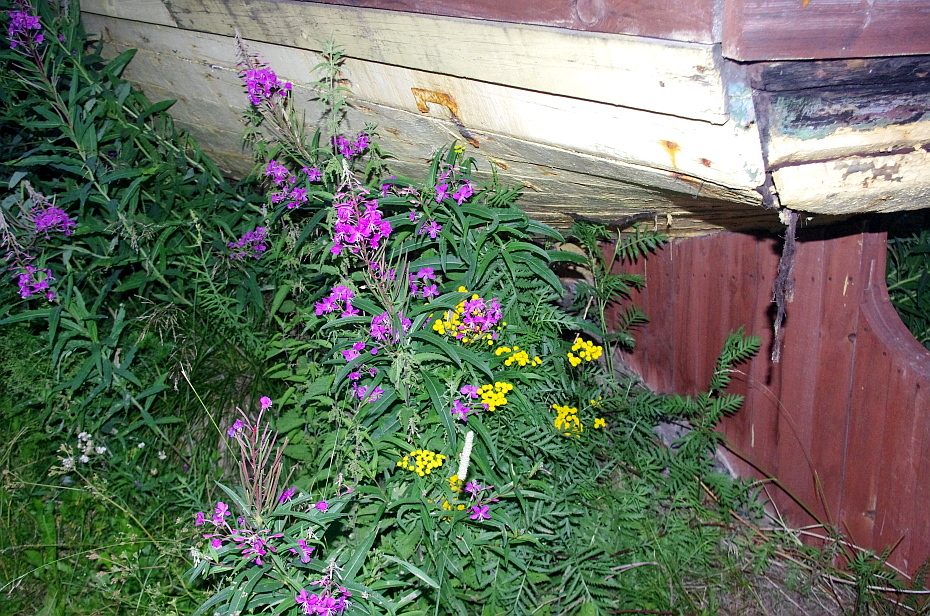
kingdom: Plantae
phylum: Tracheophyta
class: Magnoliopsida
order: Asterales
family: Asteraceae
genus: Tanacetum
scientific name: Tanacetum vulgare
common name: Common tansy
